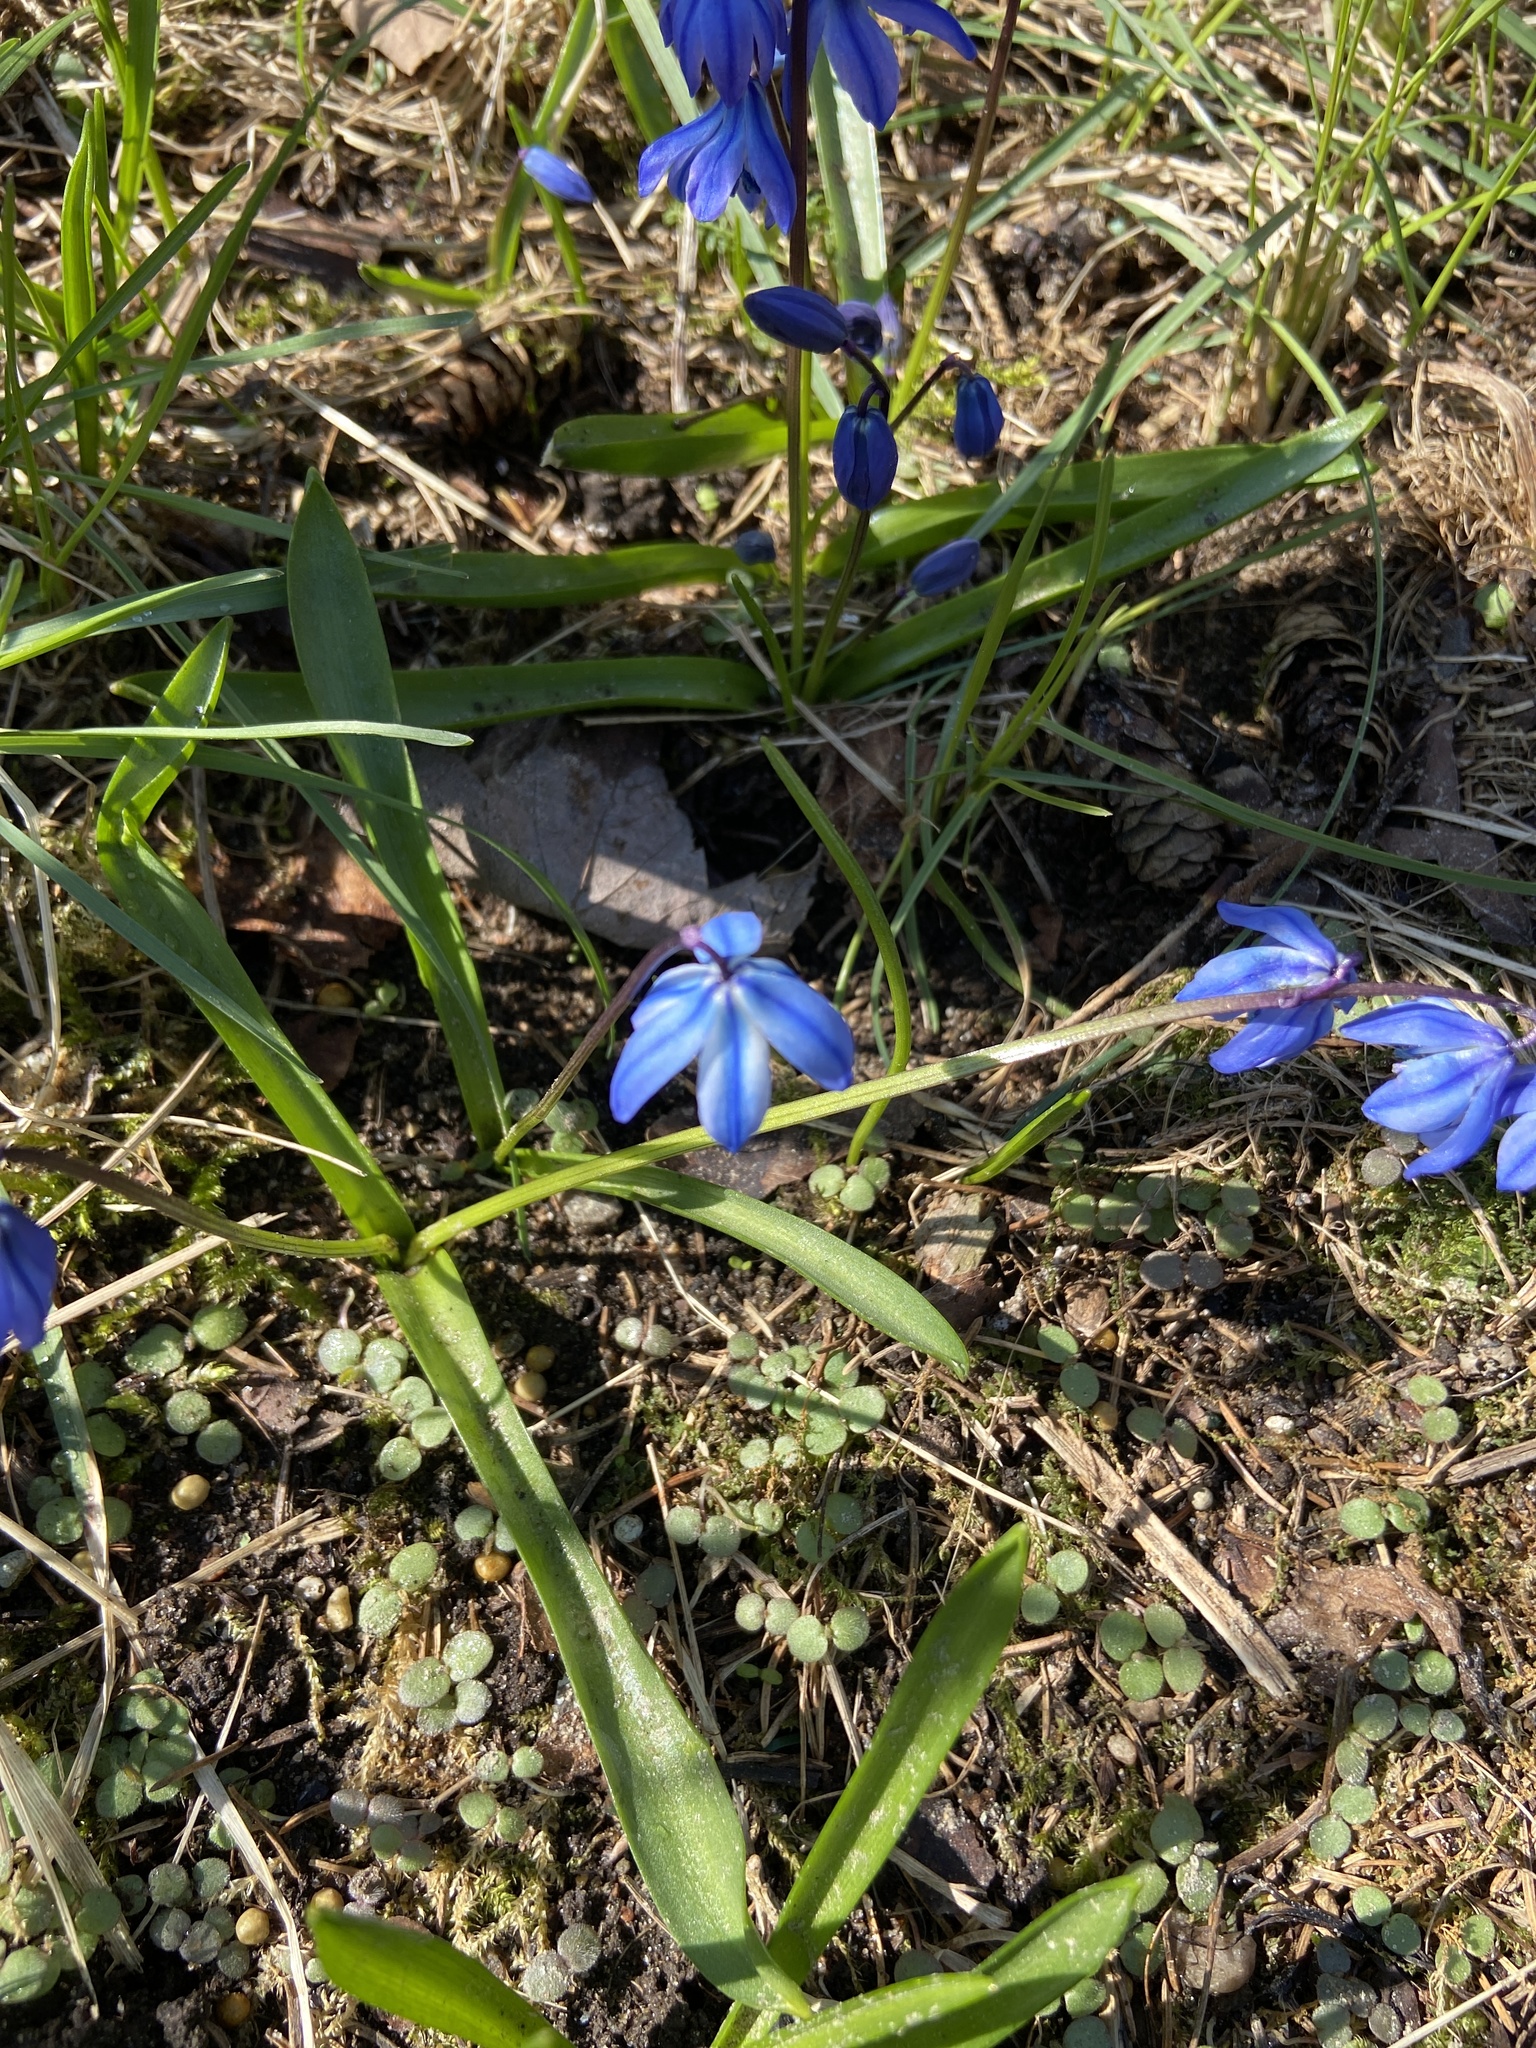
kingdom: Plantae
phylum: Tracheophyta
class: Liliopsida
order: Asparagales
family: Asparagaceae
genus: Scilla
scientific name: Scilla siberica
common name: Siberian squill
